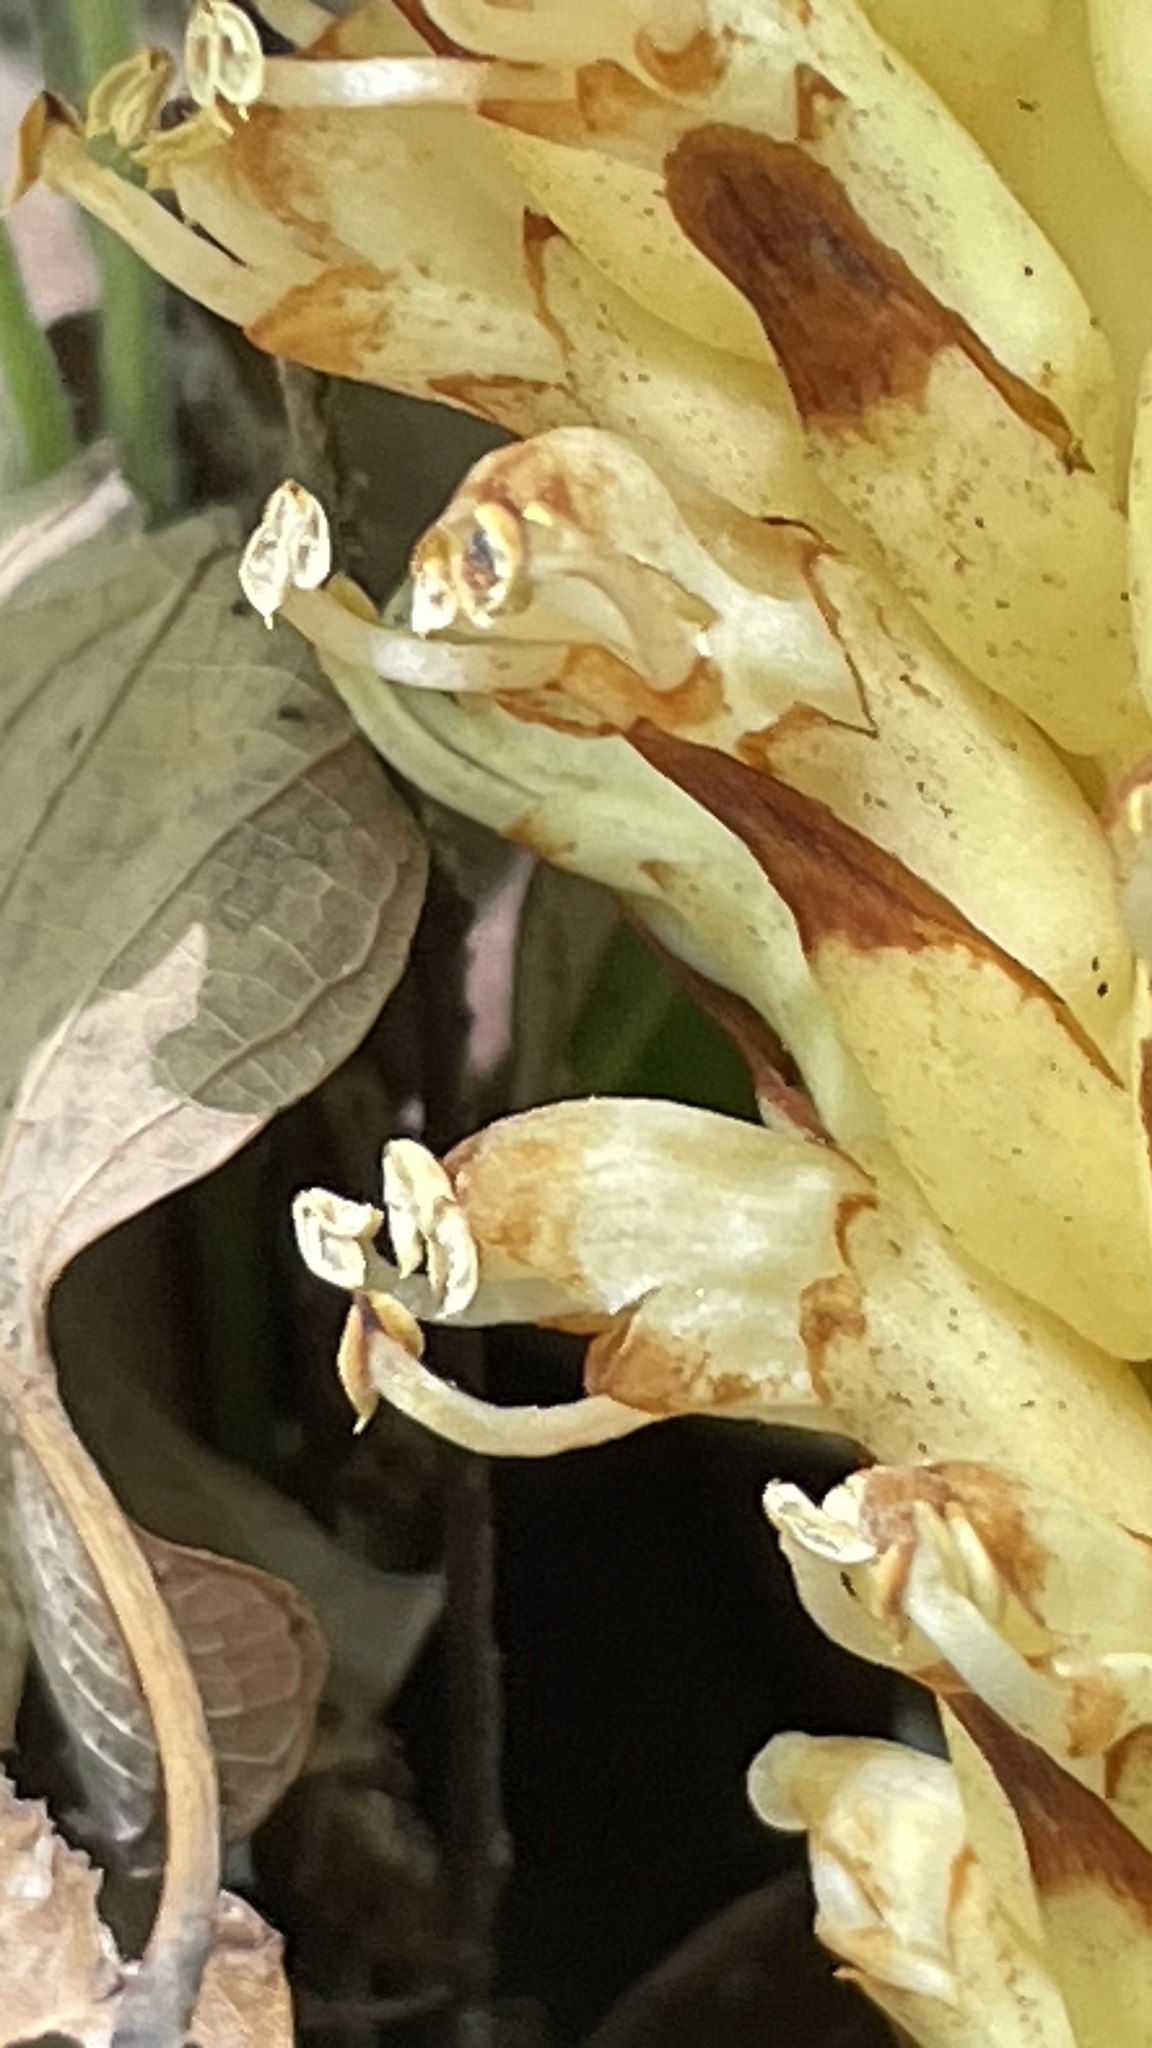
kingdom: Plantae
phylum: Tracheophyta
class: Magnoliopsida
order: Lamiales
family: Orobanchaceae
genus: Conopholis
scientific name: Conopholis alpina
